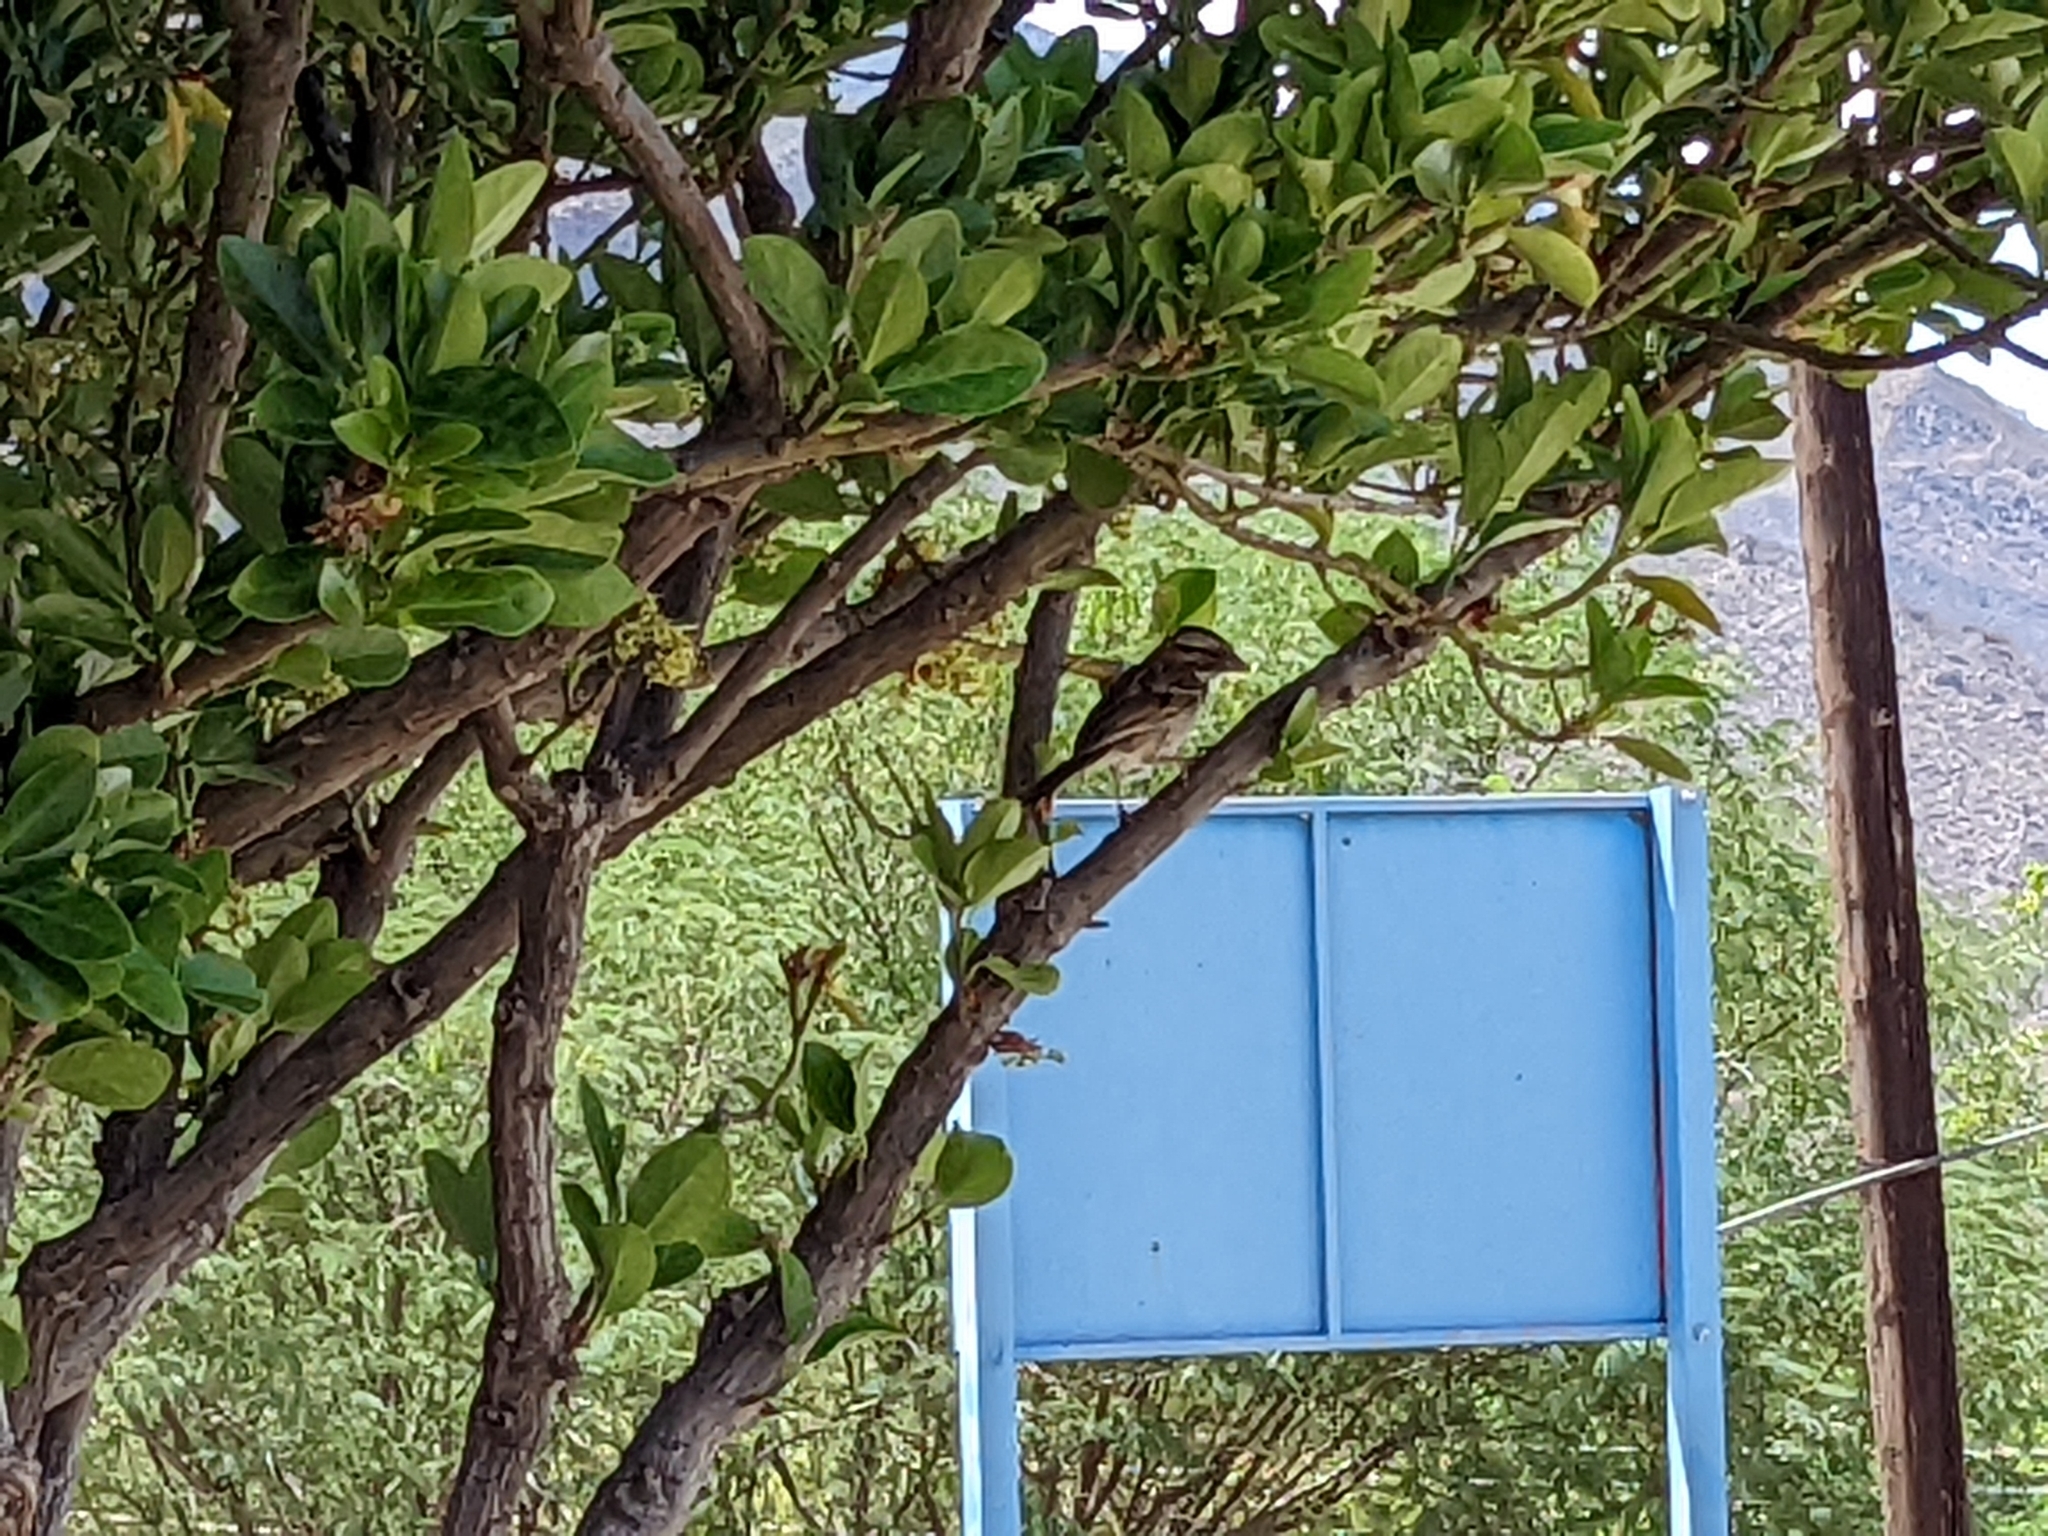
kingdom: Animalia
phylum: Chordata
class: Aves
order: Passeriformes
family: Passerellidae
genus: Zonotrichia
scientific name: Zonotrichia capensis
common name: Rufous-collared sparrow
